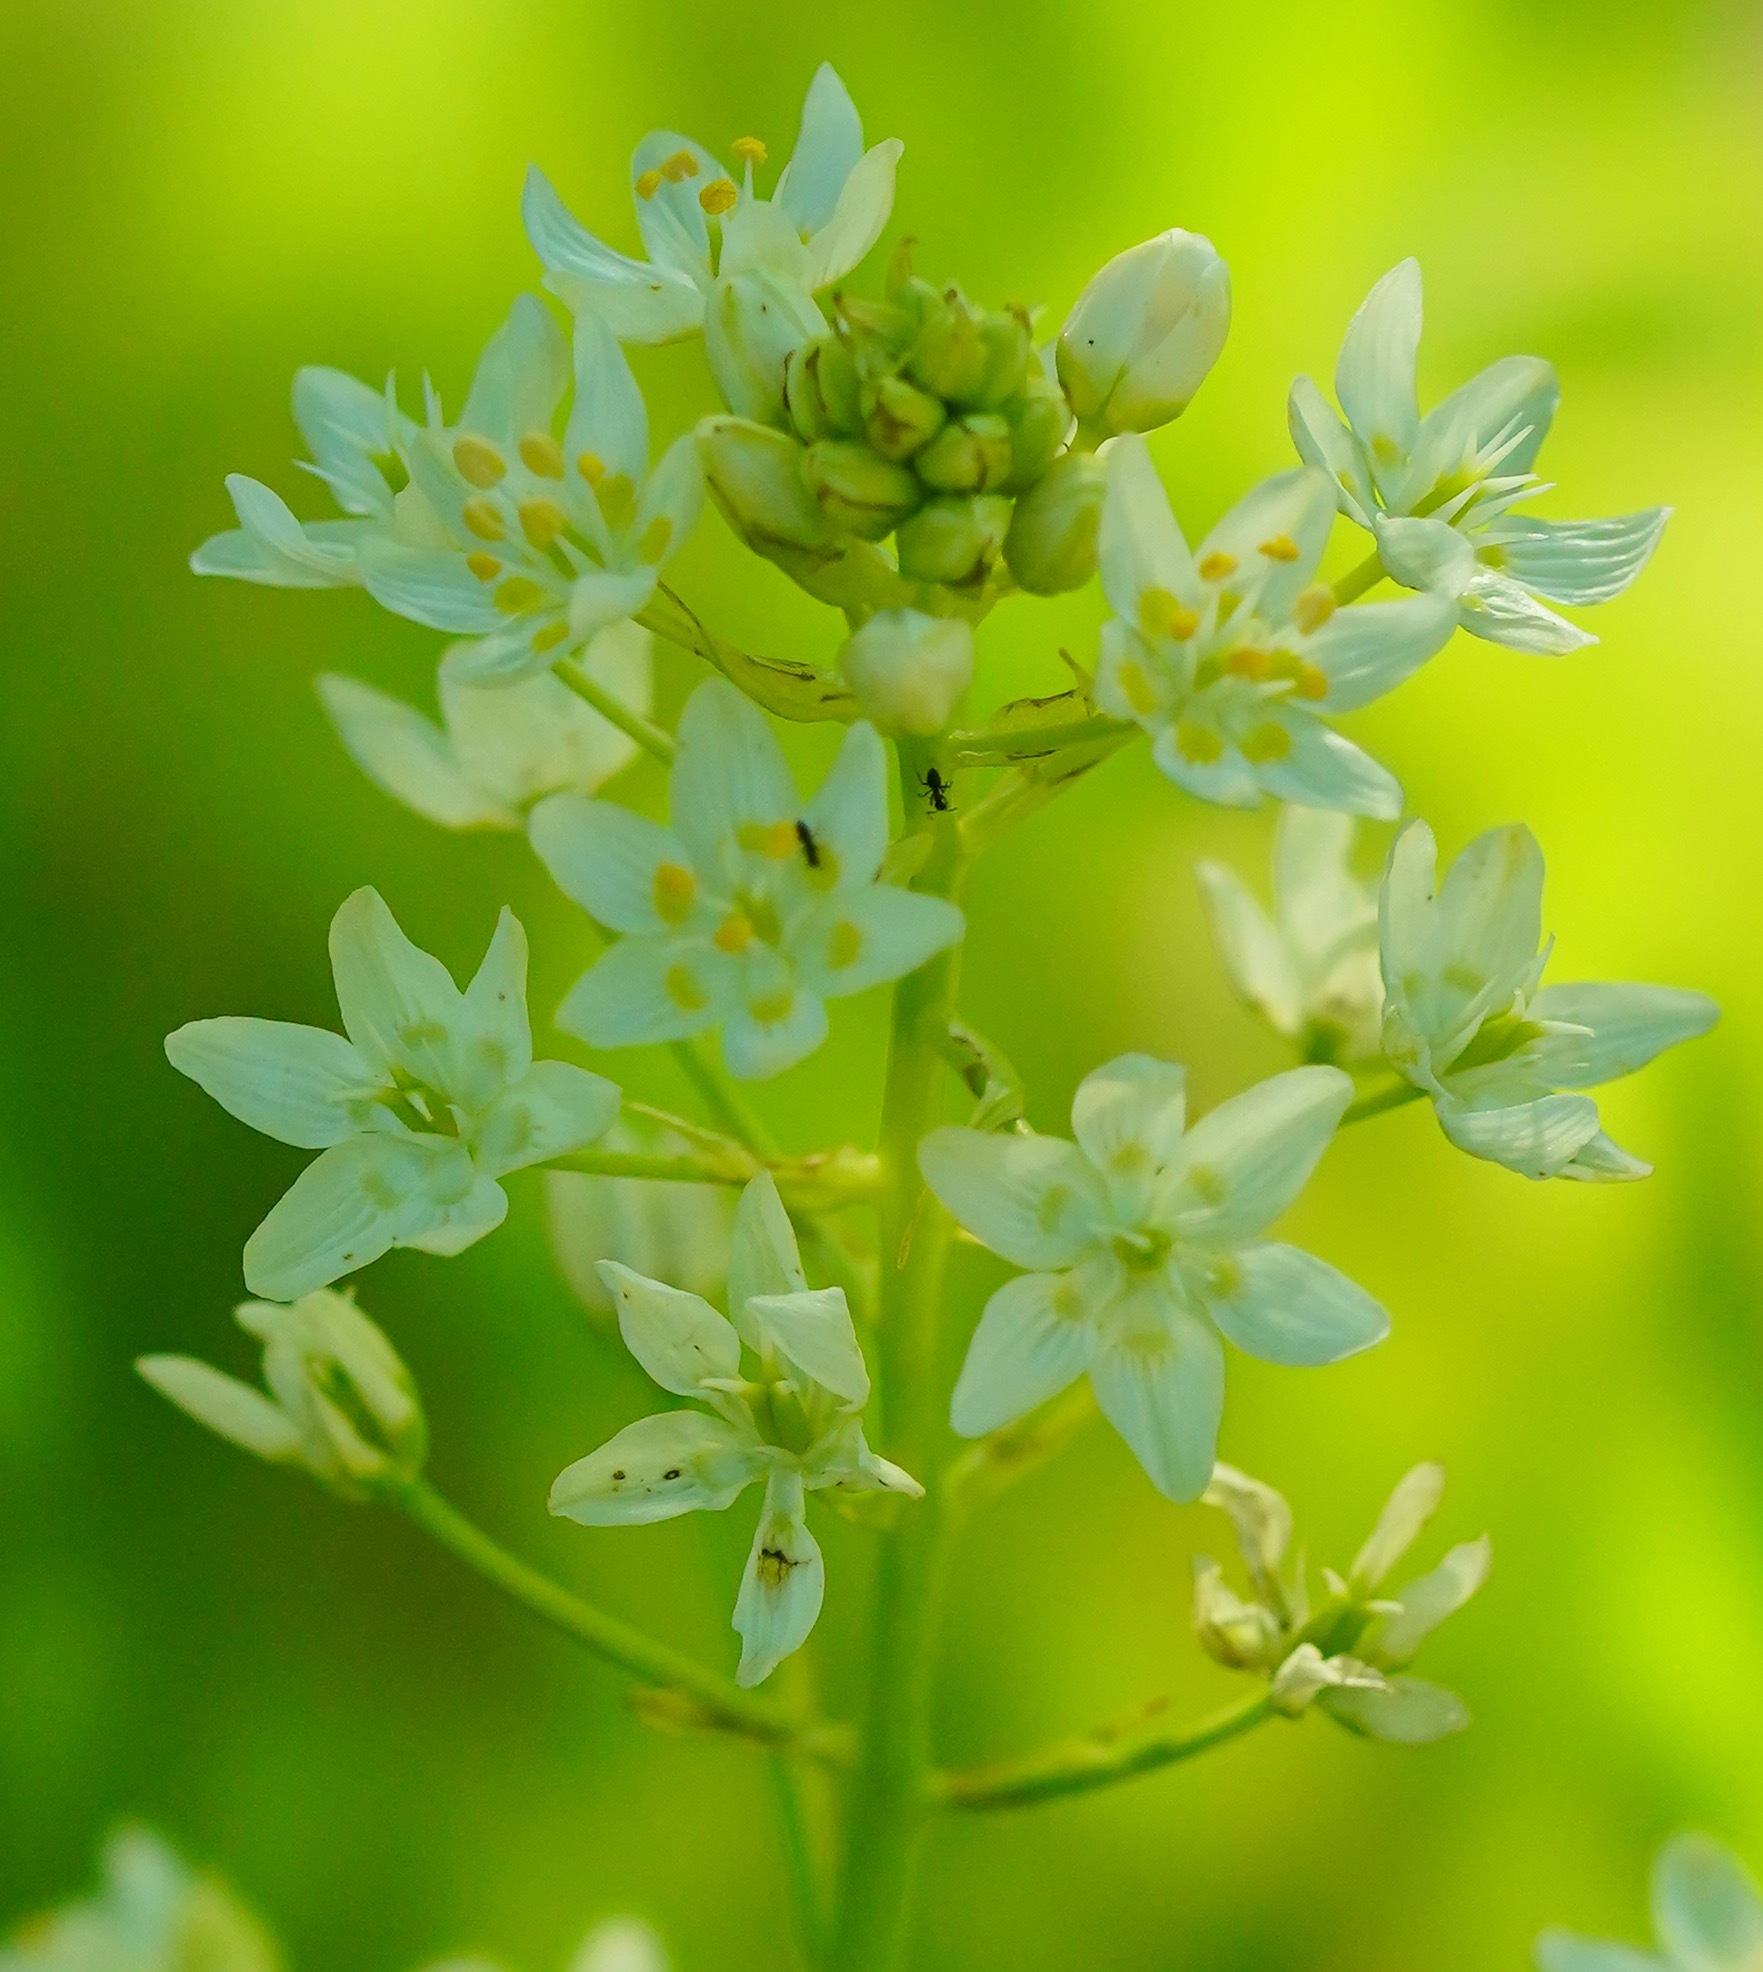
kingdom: Plantae
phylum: Tracheophyta
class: Liliopsida
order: Liliales
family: Melanthiaceae
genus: Toxicoscordion
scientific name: Toxicoscordion fremontii
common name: Fremont's death camas
